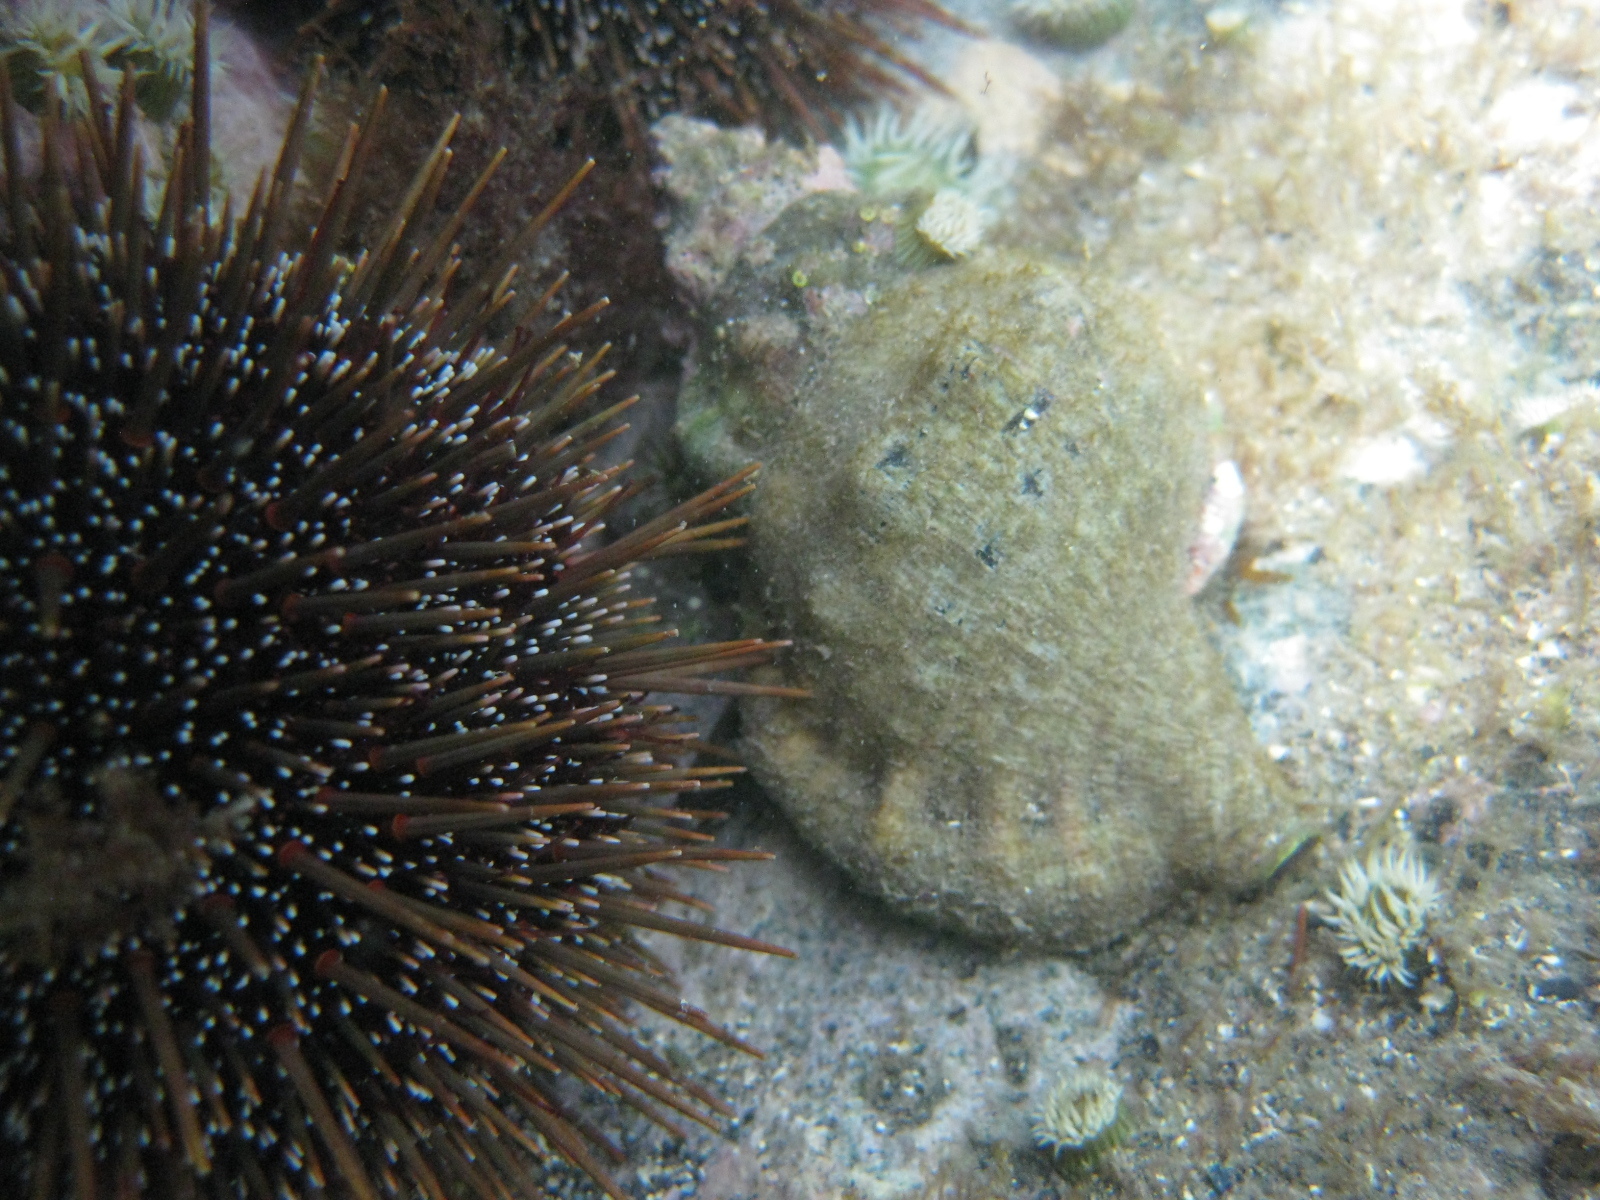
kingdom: Animalia
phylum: Mollusca
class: Gastropoda
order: Littorinimorpha
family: Ranellidae
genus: Ranella
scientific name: Ranella australasia
